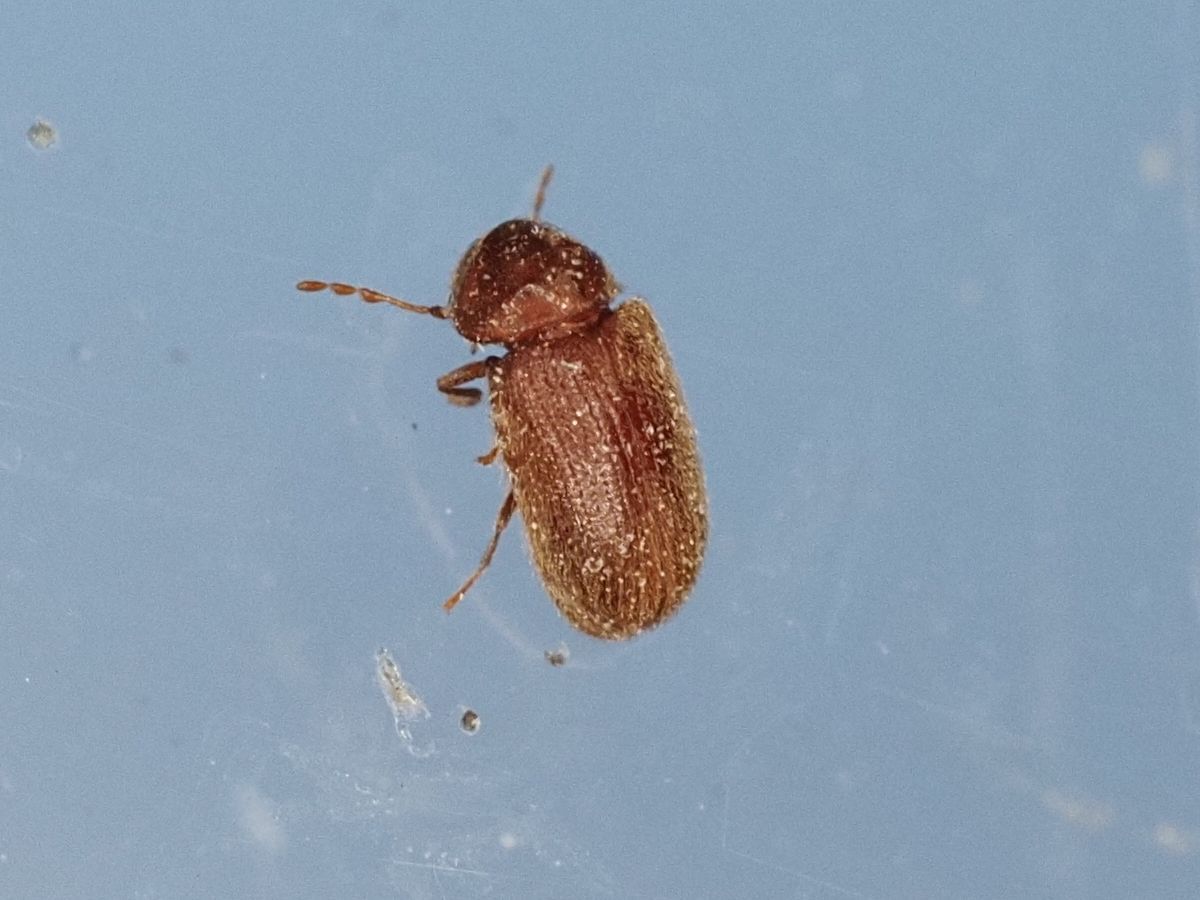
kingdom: Animalia
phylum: Arthropoda
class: Insecta
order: Coleoptera
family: Anobiidae
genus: Stegobium
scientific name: Stegobium paniceum
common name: Drugstore beetle
